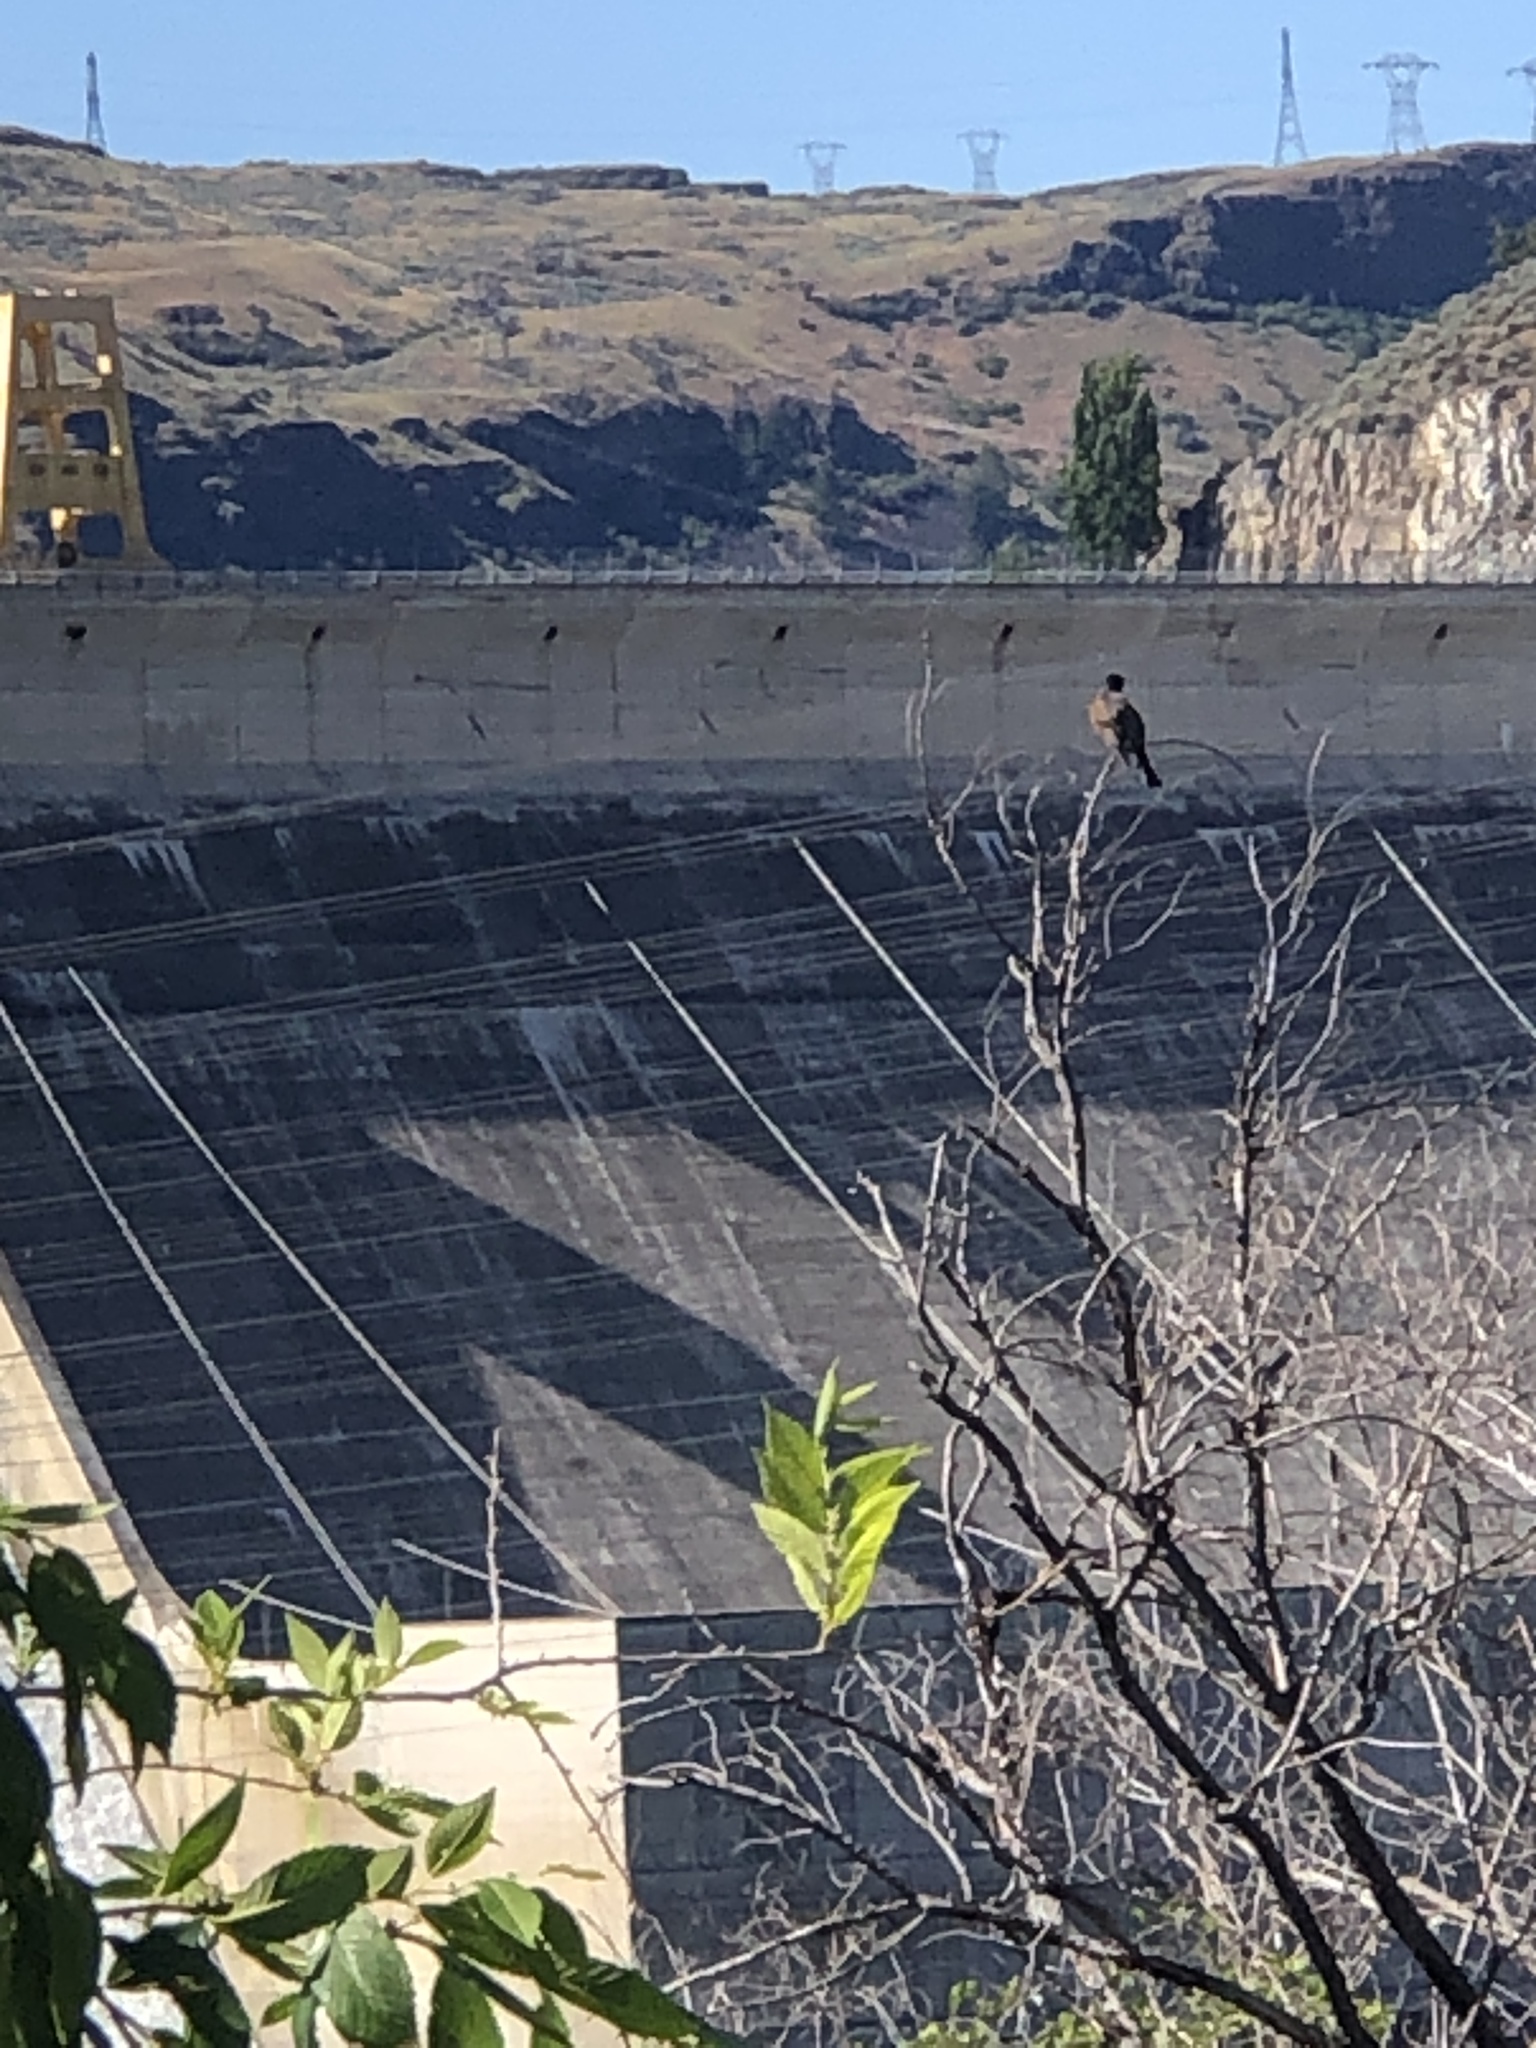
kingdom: Animalia
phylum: Chordata
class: Aves
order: Passeriformes
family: Turdidae
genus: Turdus
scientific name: Turdus migratorius
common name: American robin
